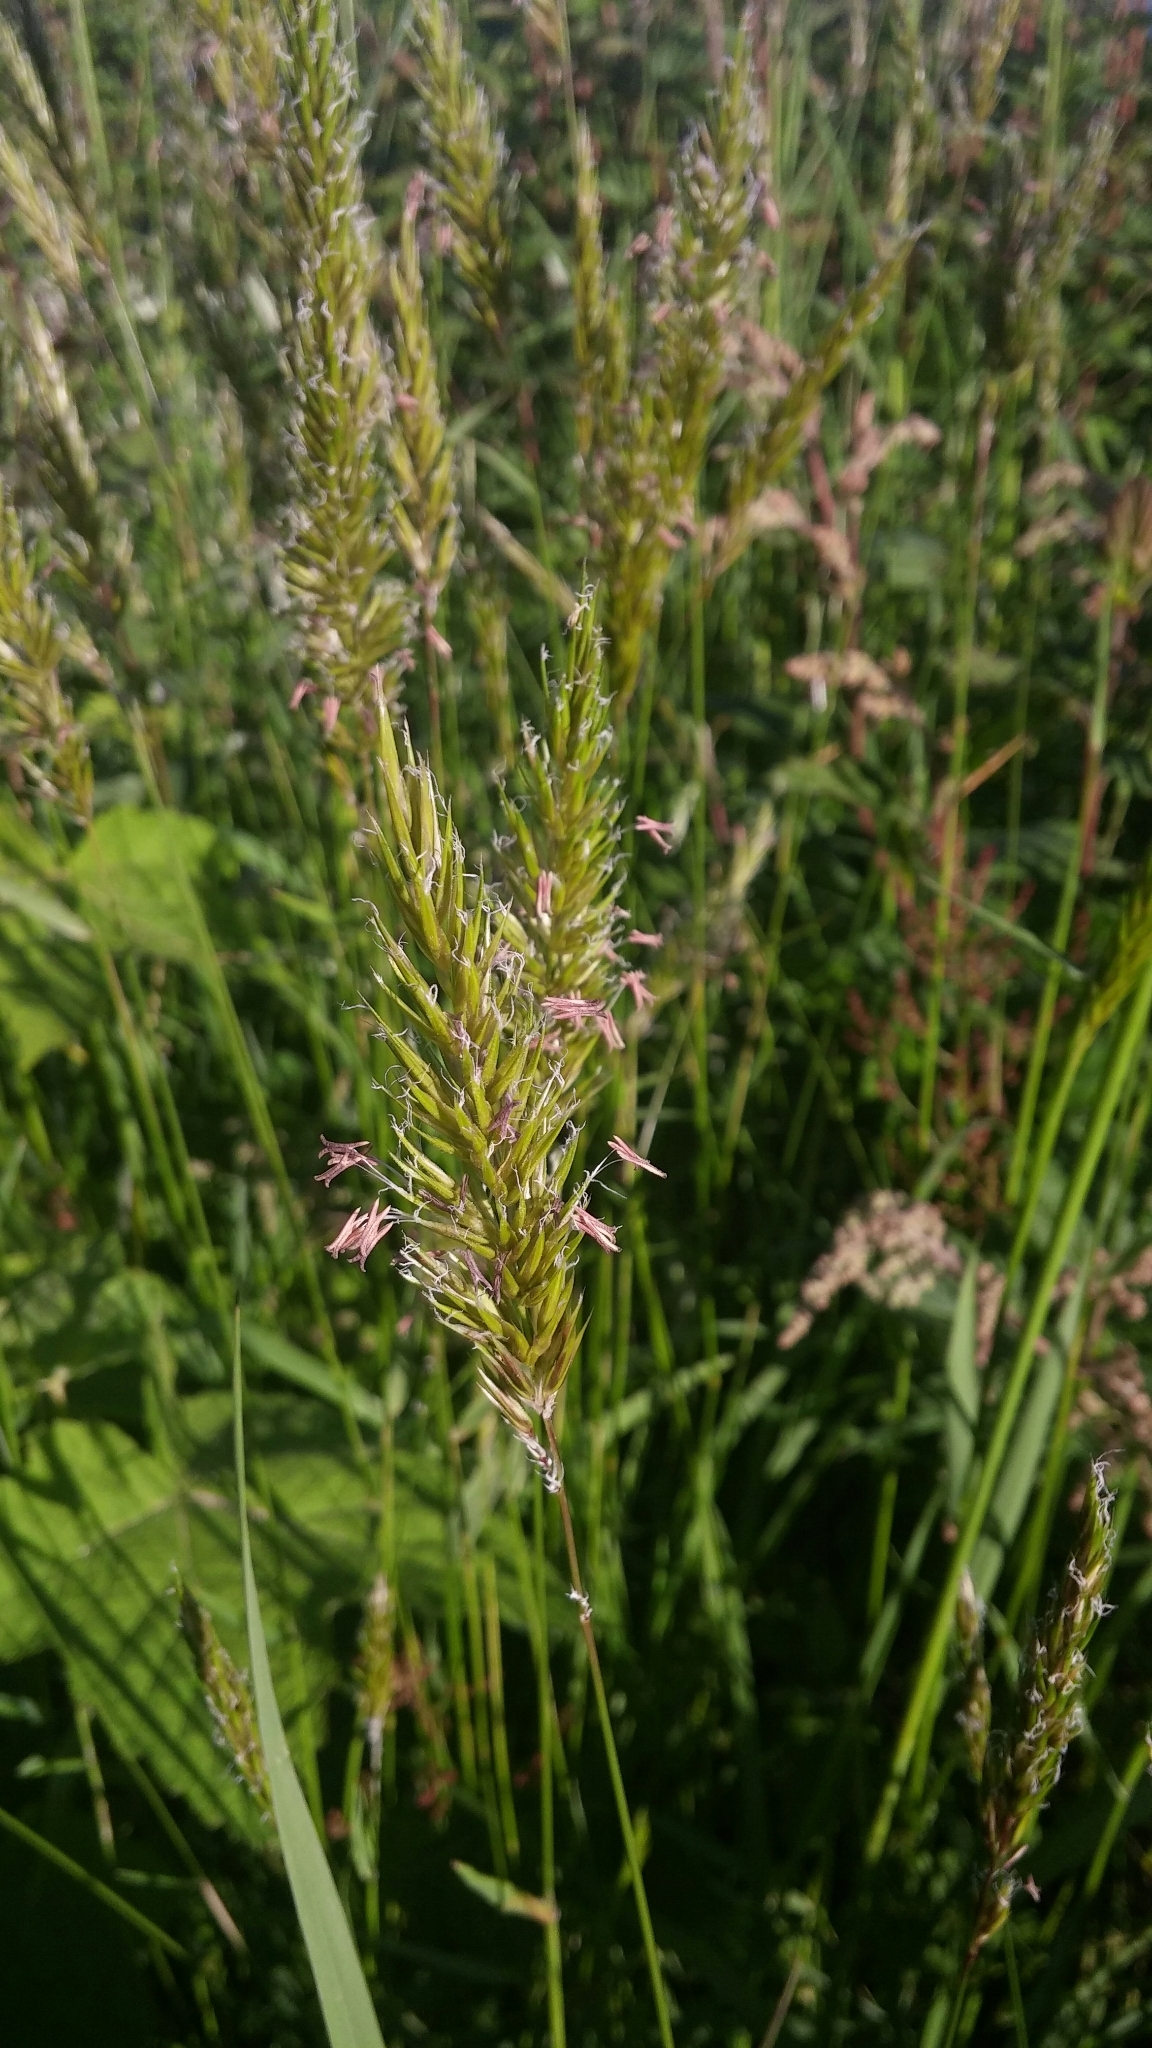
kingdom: Plantae
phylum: Tracheophyta
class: Liliopsida
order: Poales
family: Poaceae
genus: Anthoxanthum
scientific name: Anthoxanthum odoratum
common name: Sweet vernalgrass
